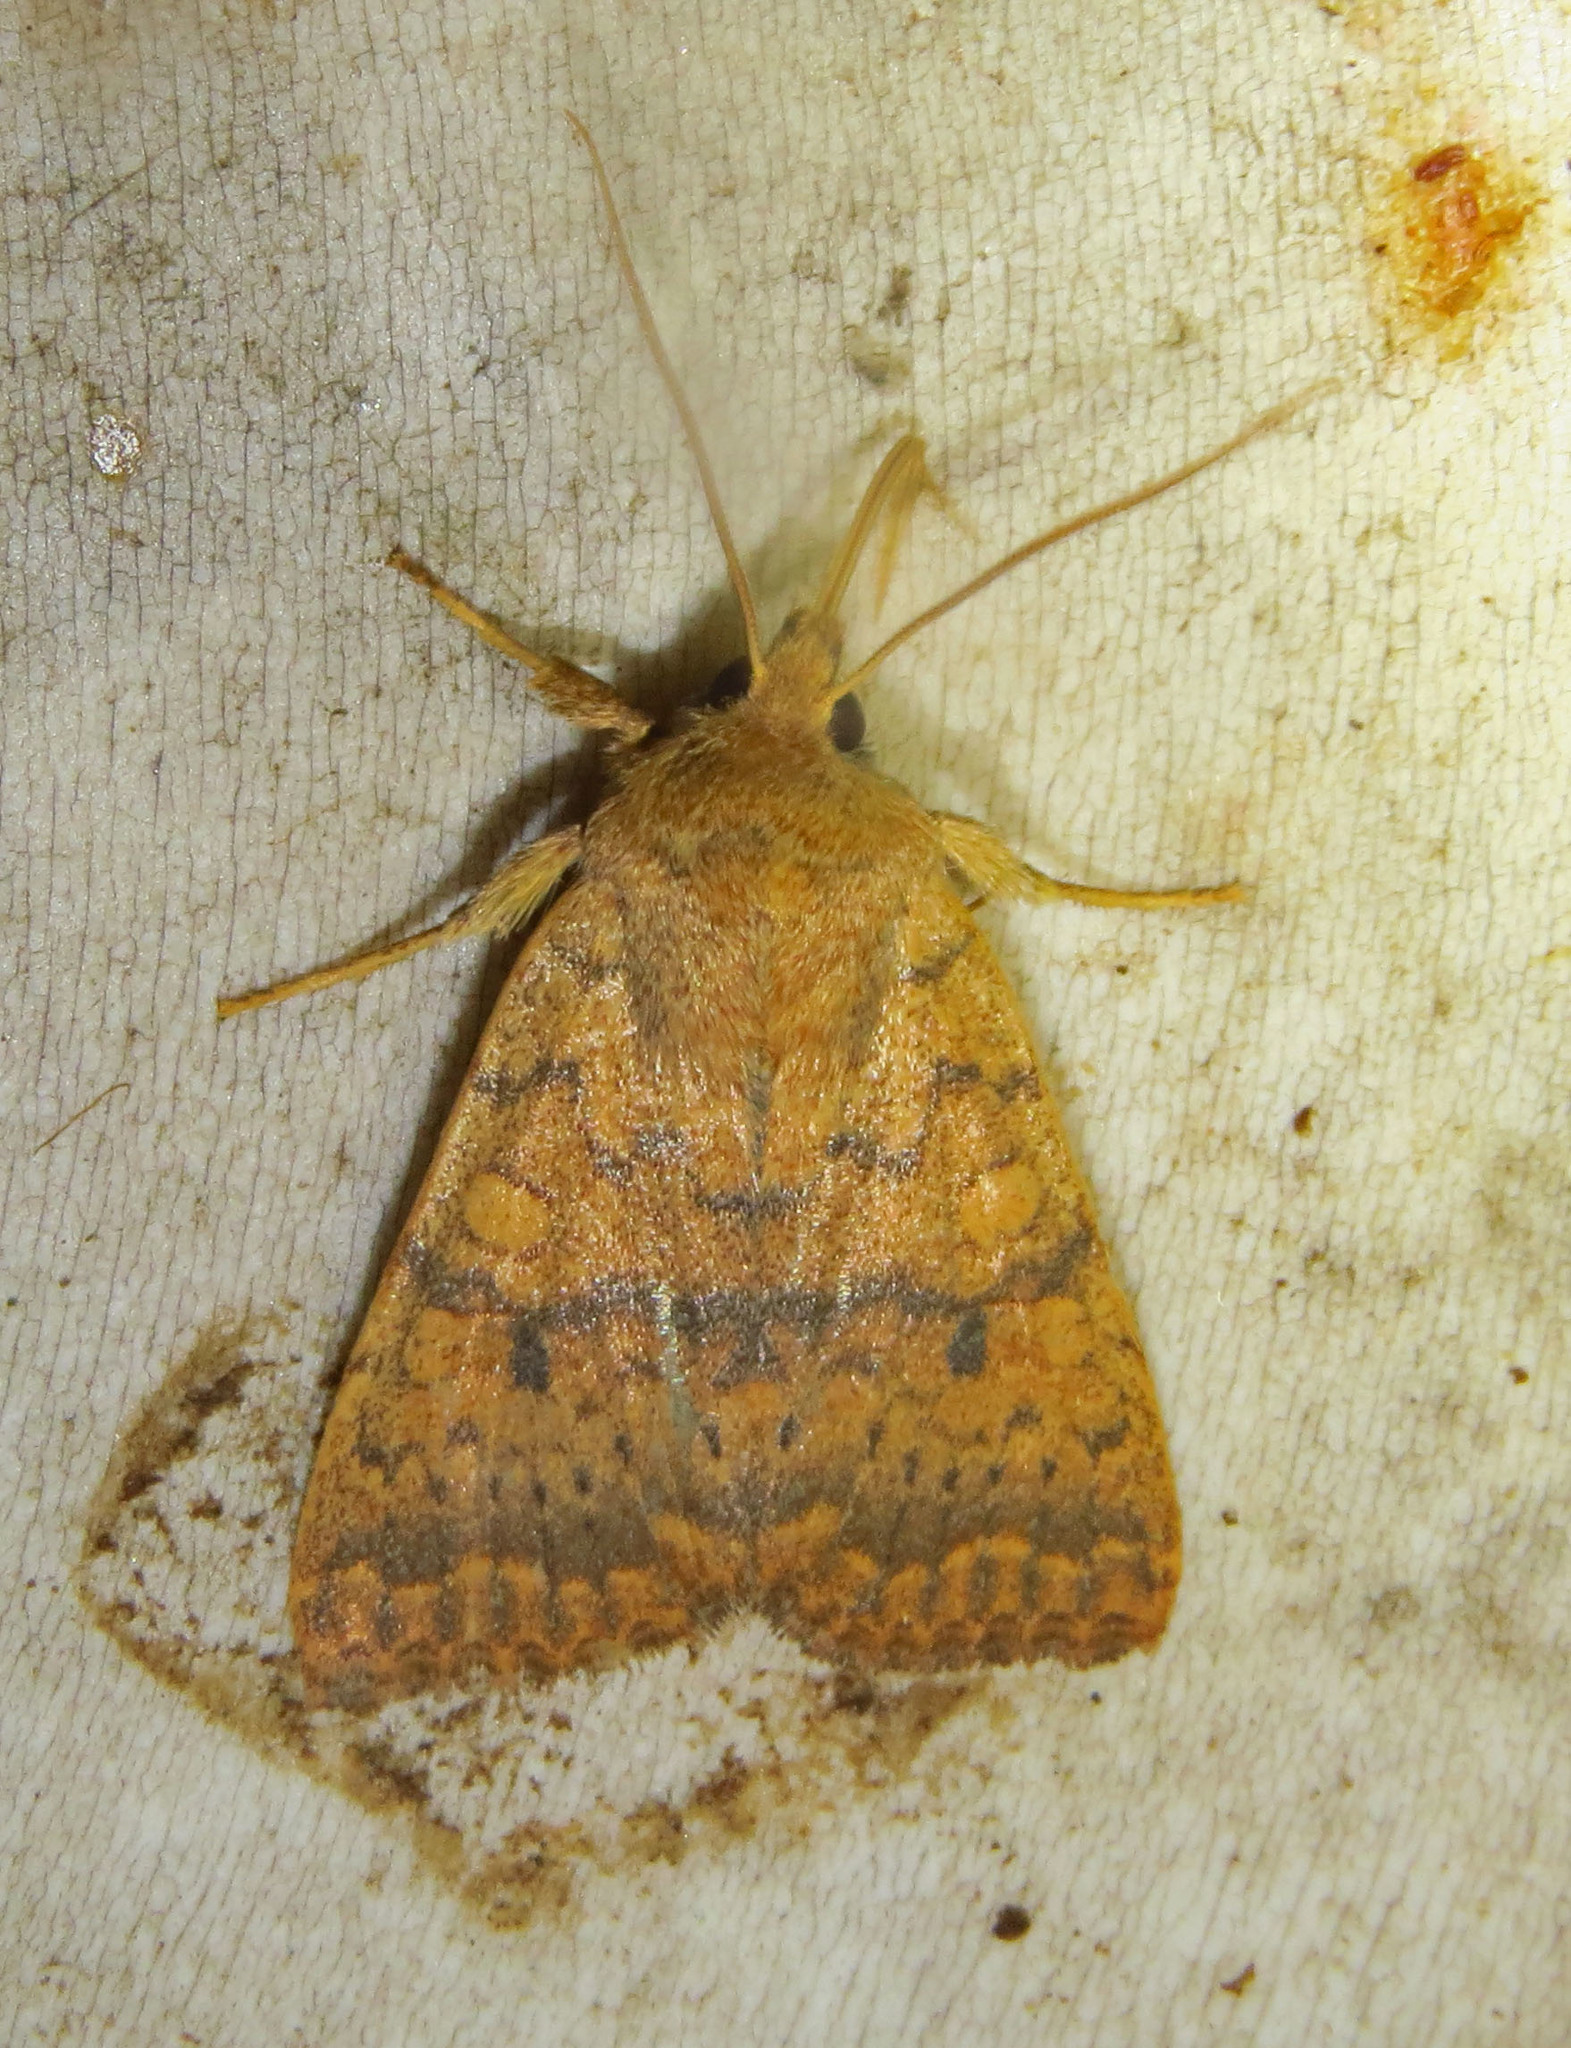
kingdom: Animalia
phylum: Arthropoda
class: Insecta
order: Lepidoptera
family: Noctuidae
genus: Agrochola
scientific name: Agrochola bicolorago
